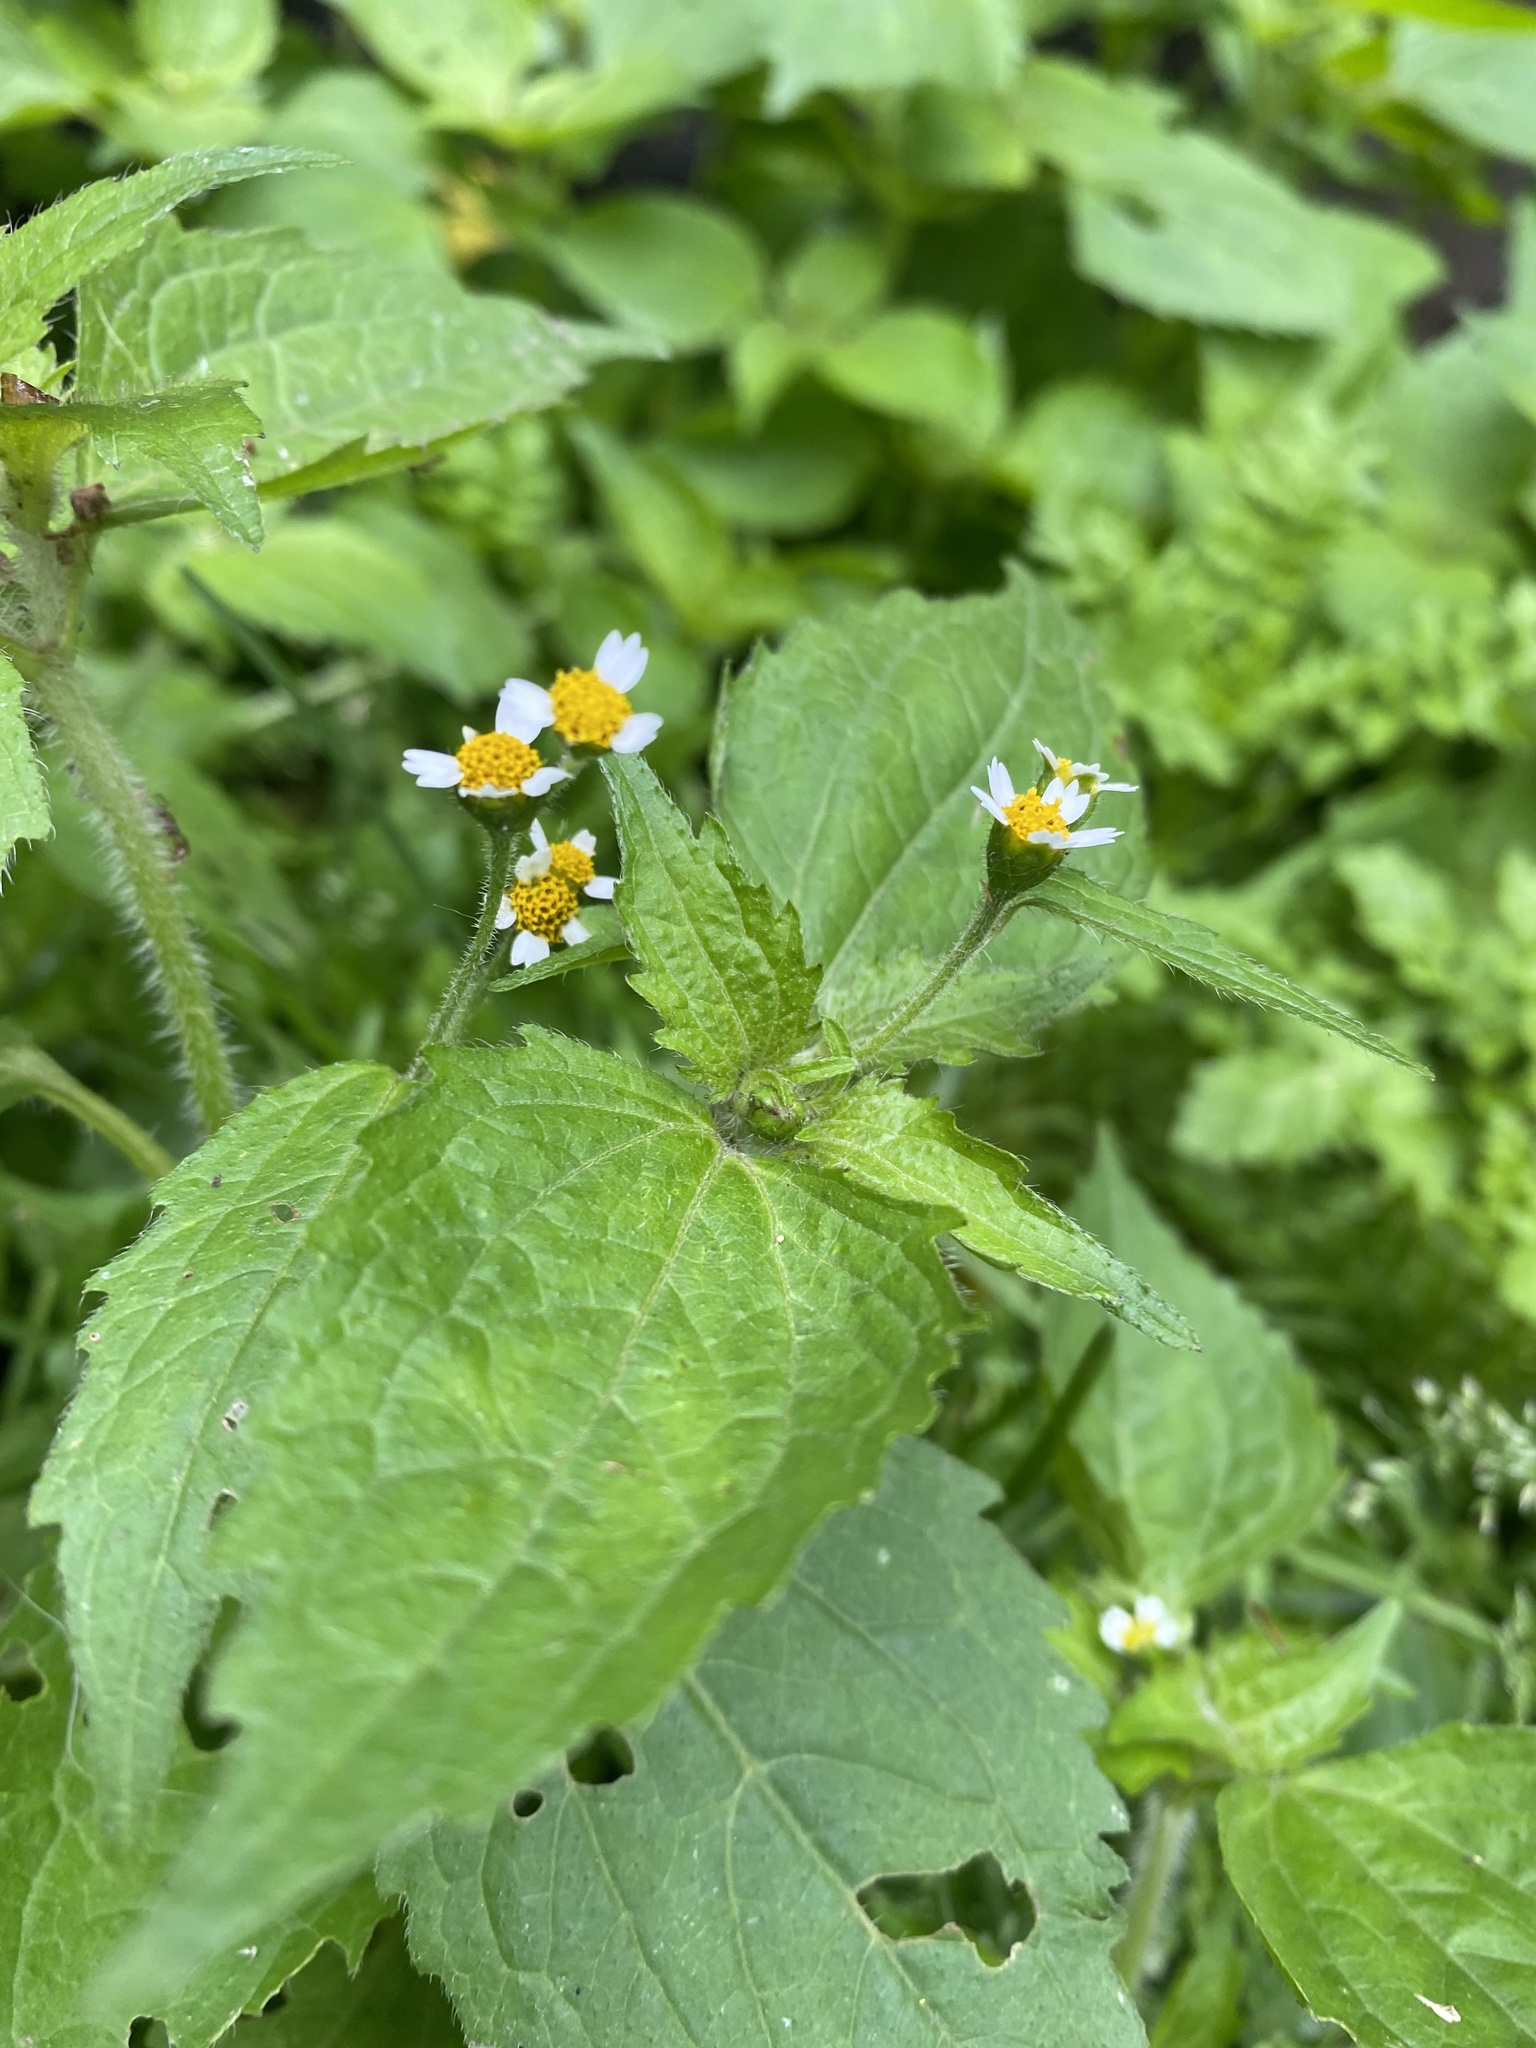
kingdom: Plantae
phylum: Tracheophyta
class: Magnoliopsida
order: Asterales
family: Asteraceae
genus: Galinsoga
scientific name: Galinsoga quadriradiata
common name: Shaggy soldier
